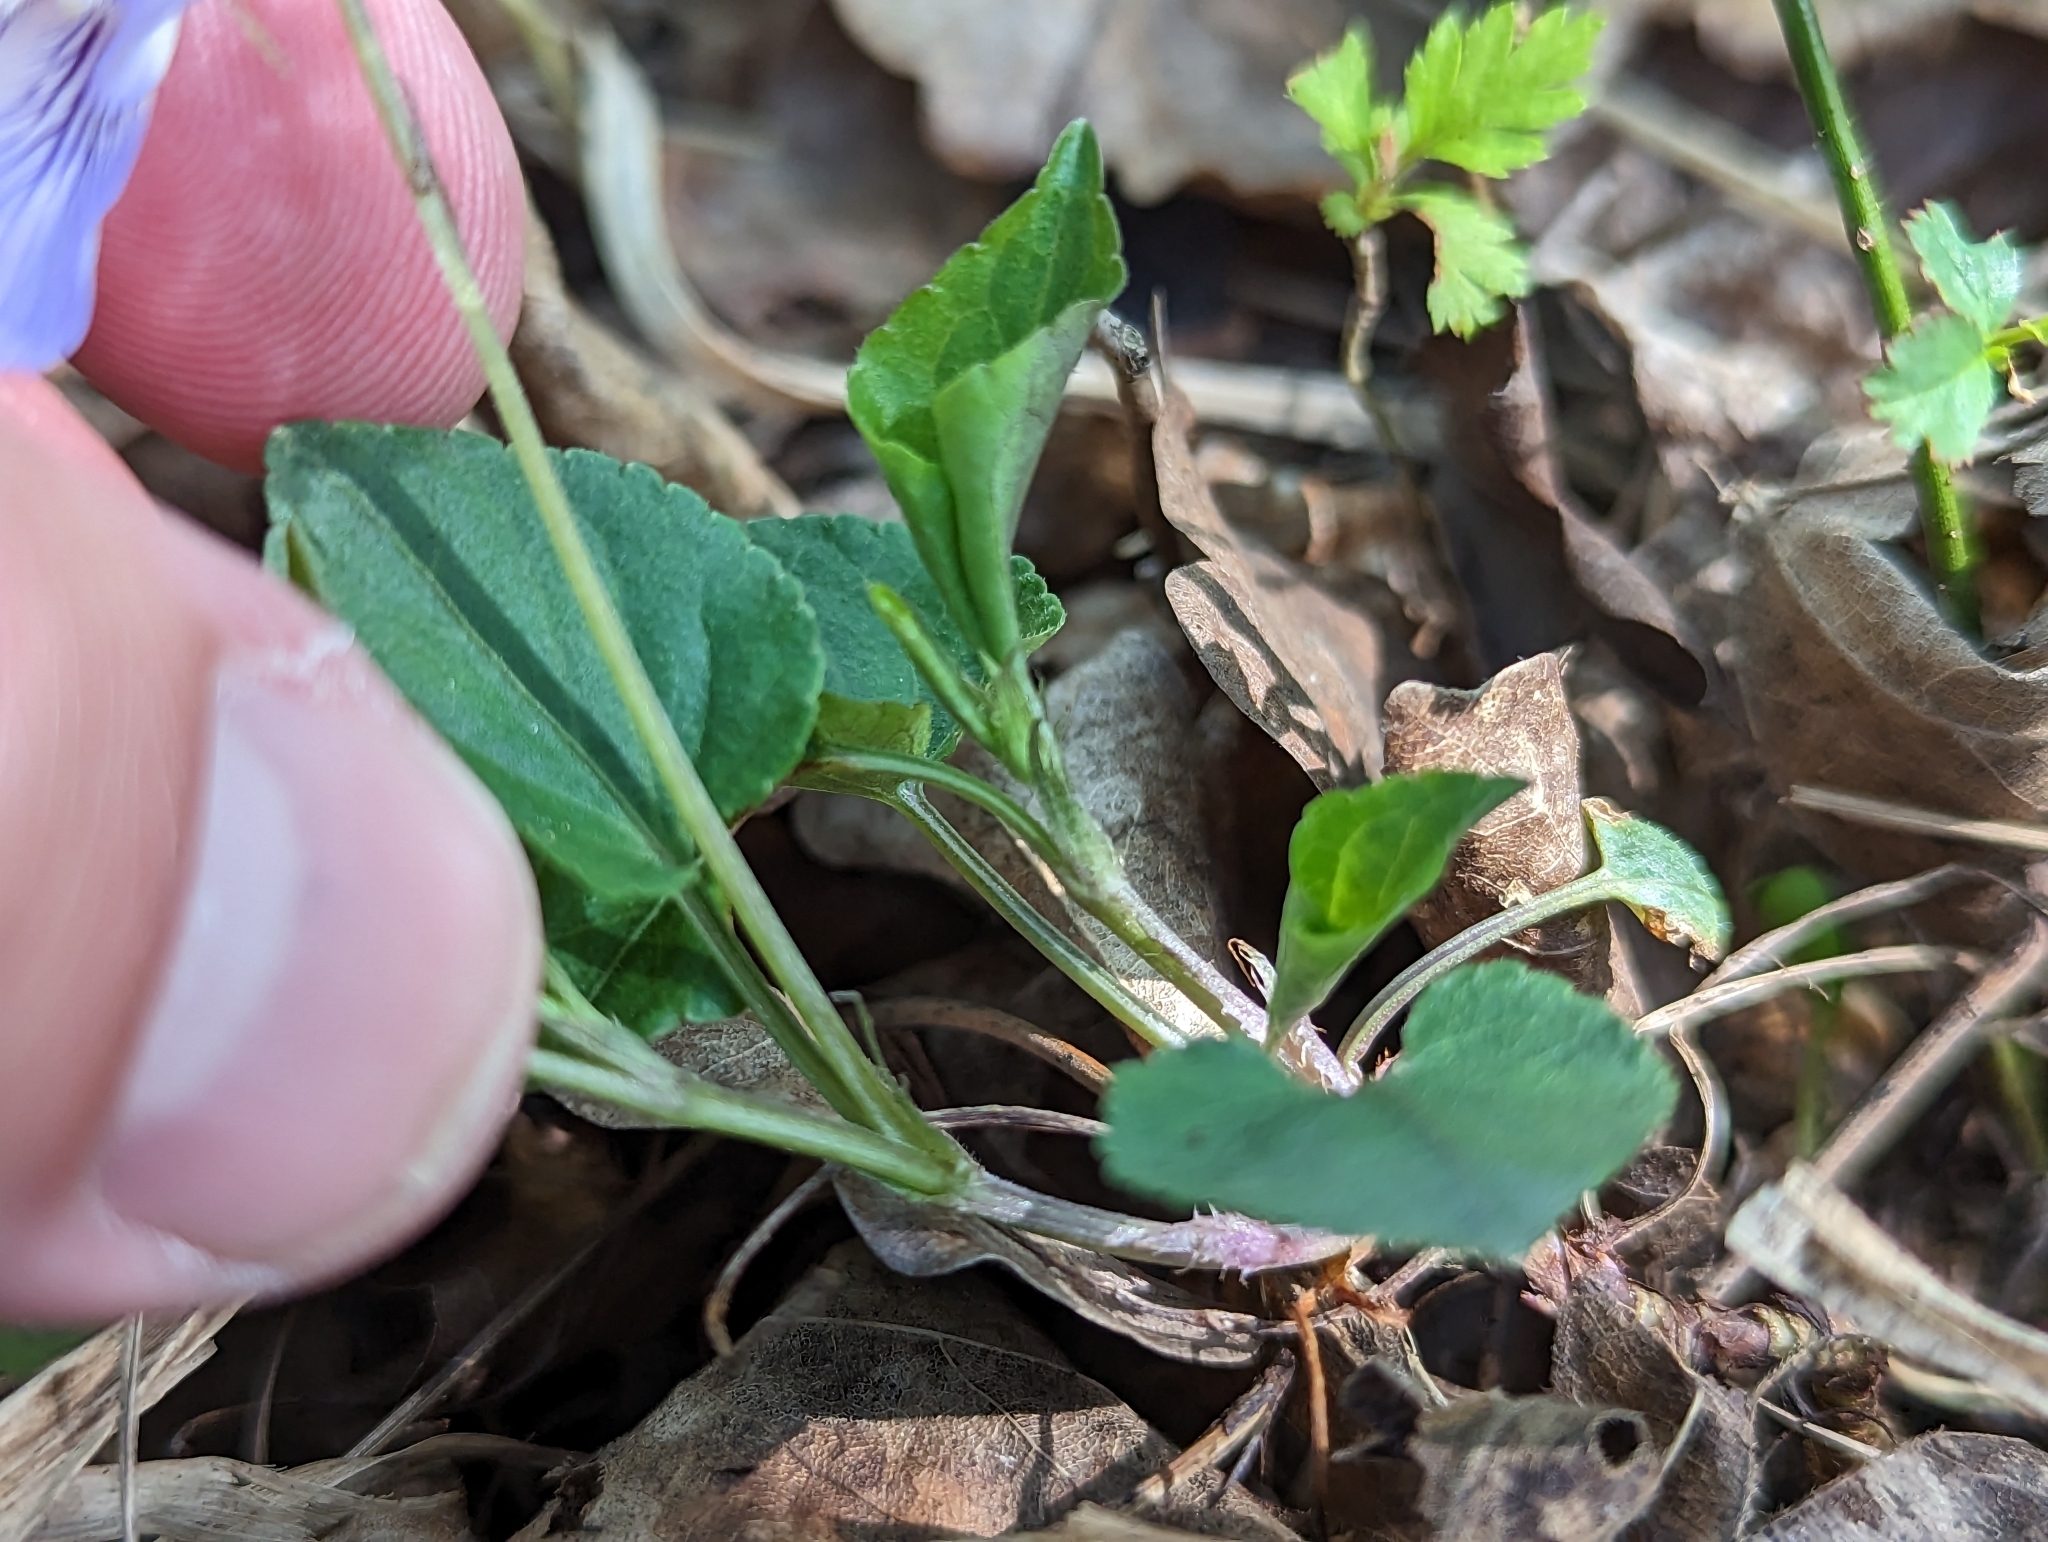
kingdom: Plantae
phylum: Tracheophyta
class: Magnoliopsida
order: Malpighiales
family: Violaceae
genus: Viola
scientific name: Viola riviniana
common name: Common dog-violet
